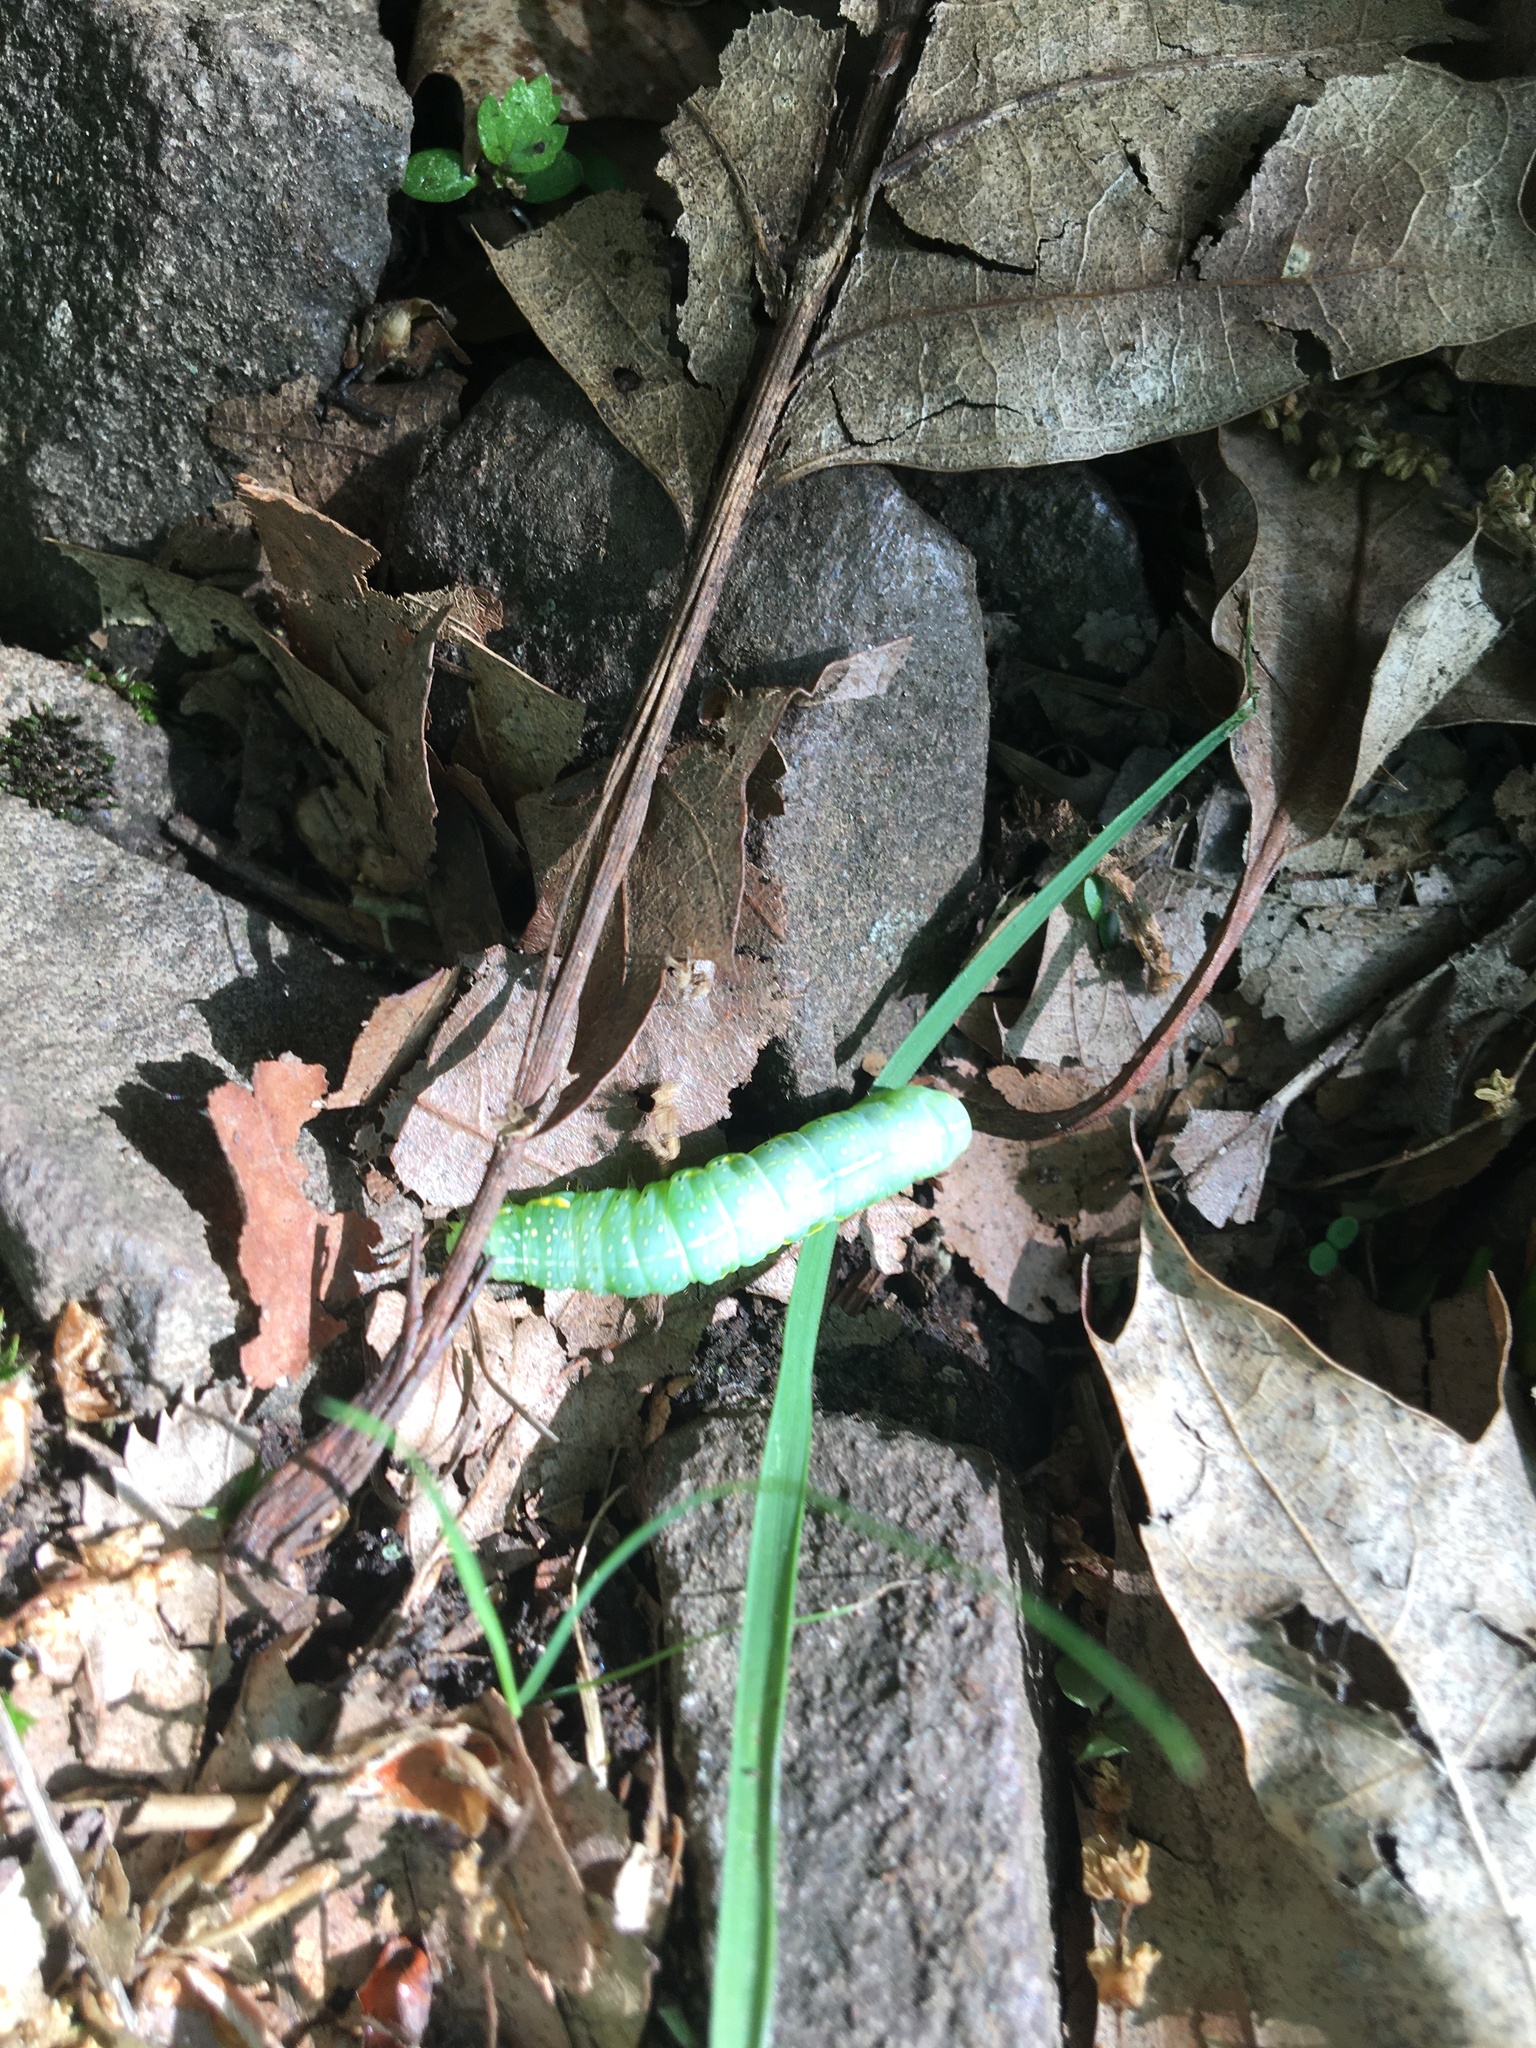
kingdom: Animalia
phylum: Arthropoda
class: Insecta
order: Lepidoptera
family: Noctuidae
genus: Amphipyra
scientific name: Amphipyra pyramidoides
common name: American copper underwing
